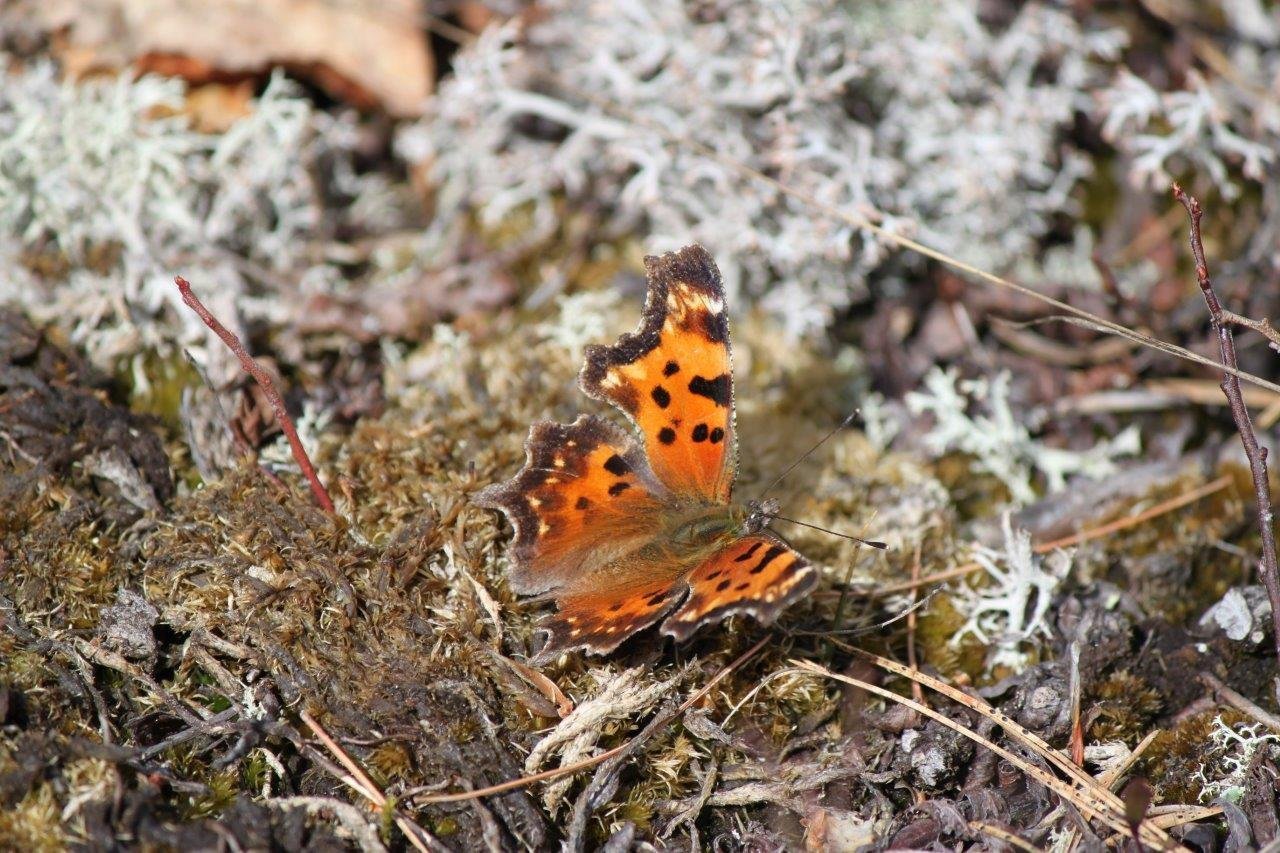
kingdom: Animalia
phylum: Arthropoda
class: Insecta
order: Lepidoptera
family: Nymphalidae
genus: Polygonia
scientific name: Polygonia faunus
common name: Green comma
